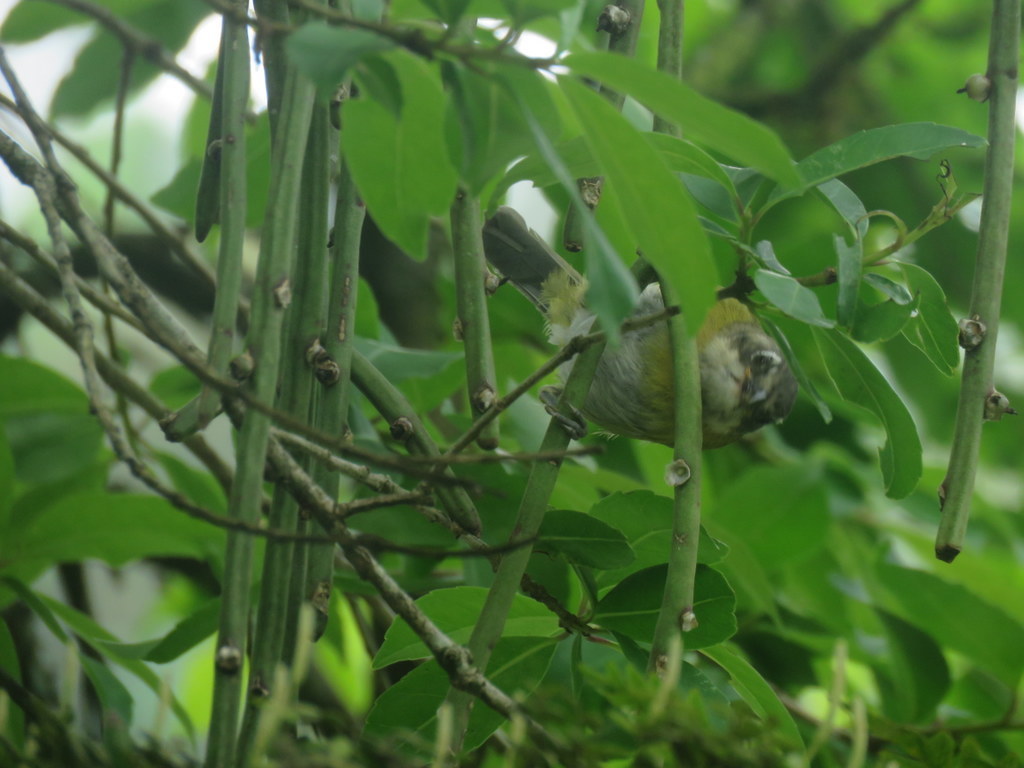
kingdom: Animalia
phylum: Chordata
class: Aves
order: Passeriformes
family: Passerellidae
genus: Chlorospingus
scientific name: Chlorospingus flavopectus
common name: Common chlorospingus
